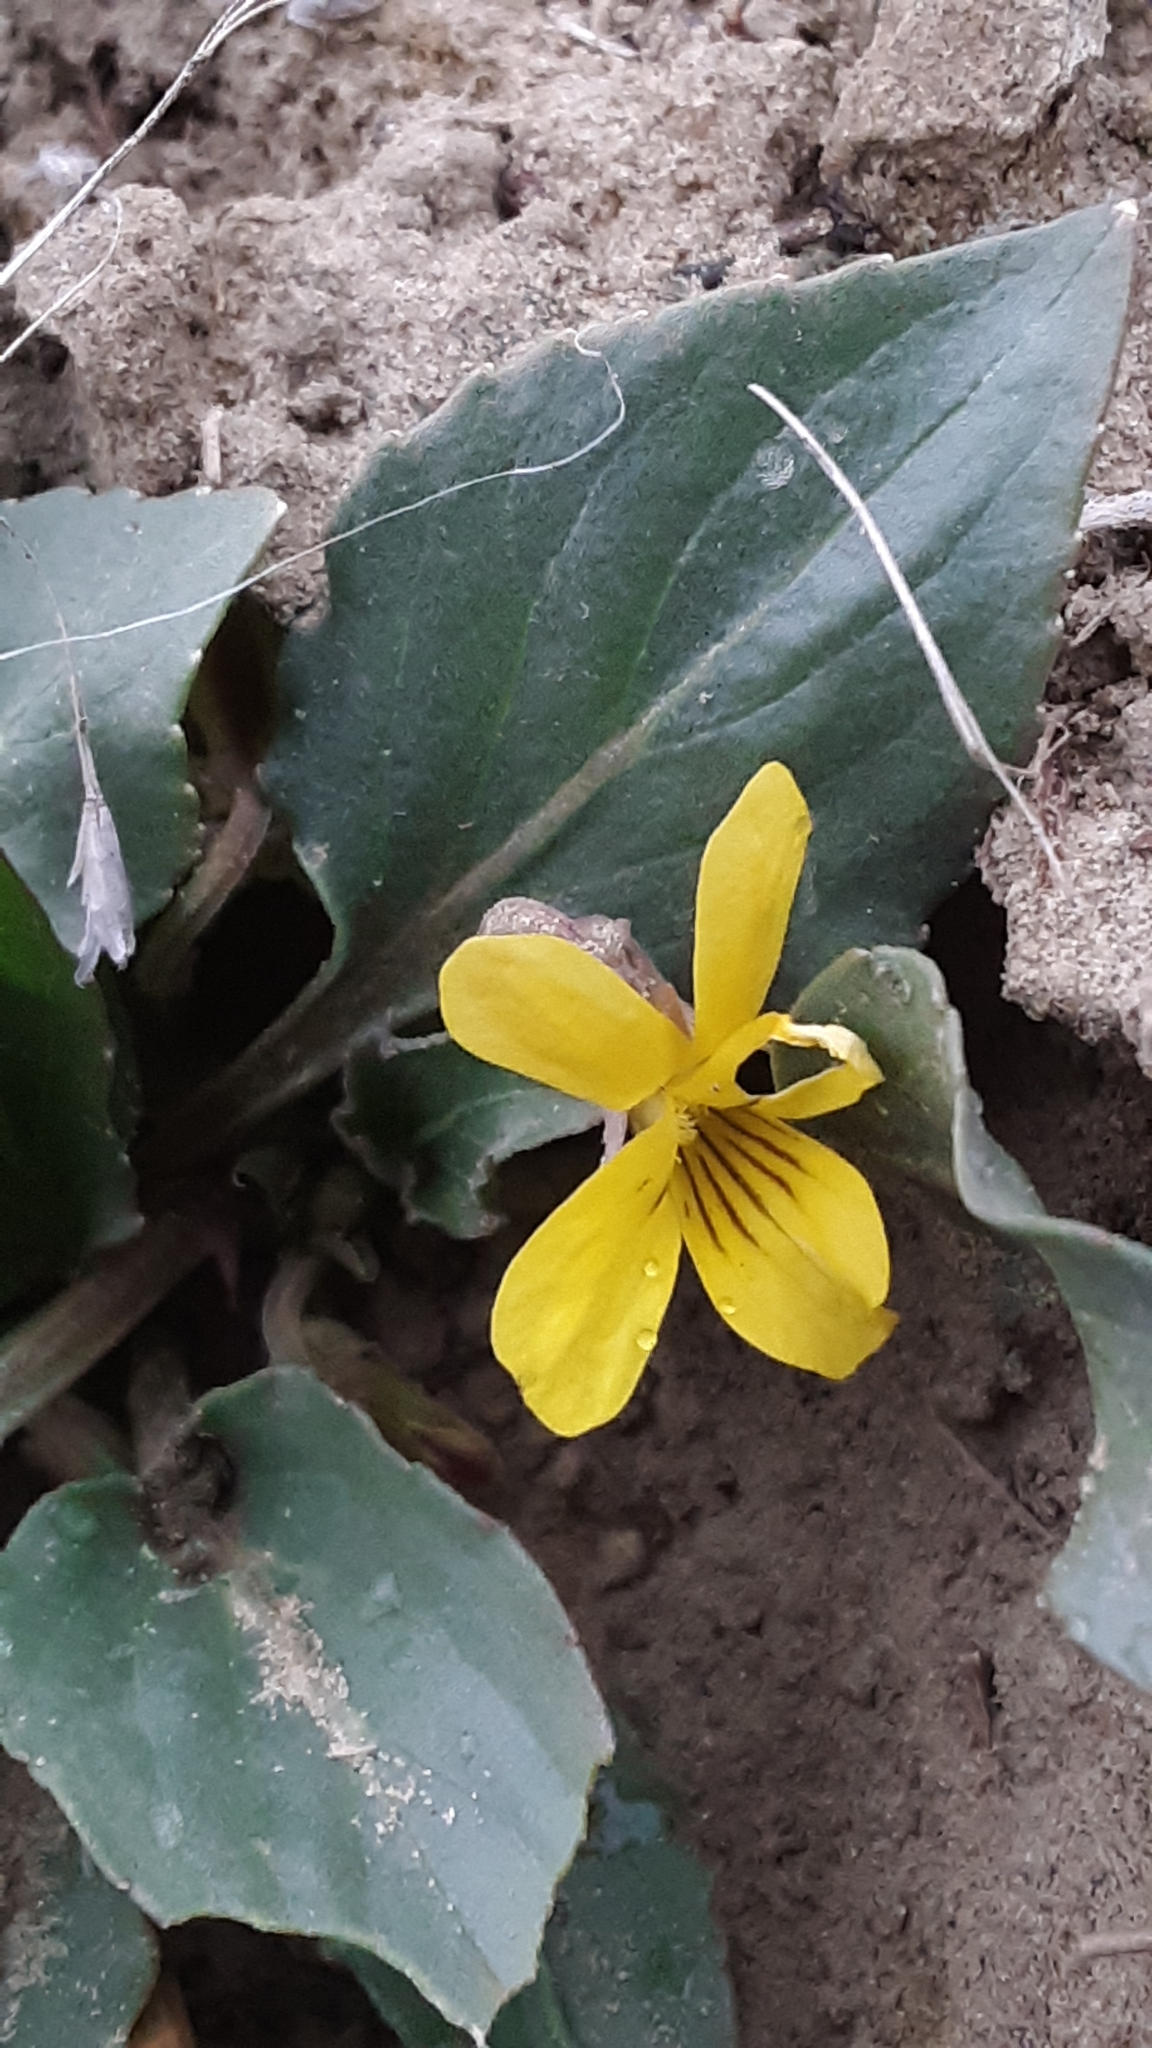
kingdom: Plantae
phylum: Tracheophyta
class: Magnoliopsida
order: Malpighiales
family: Violaceae
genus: Viola
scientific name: Viola nuttallii
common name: Yellow prairie violet
